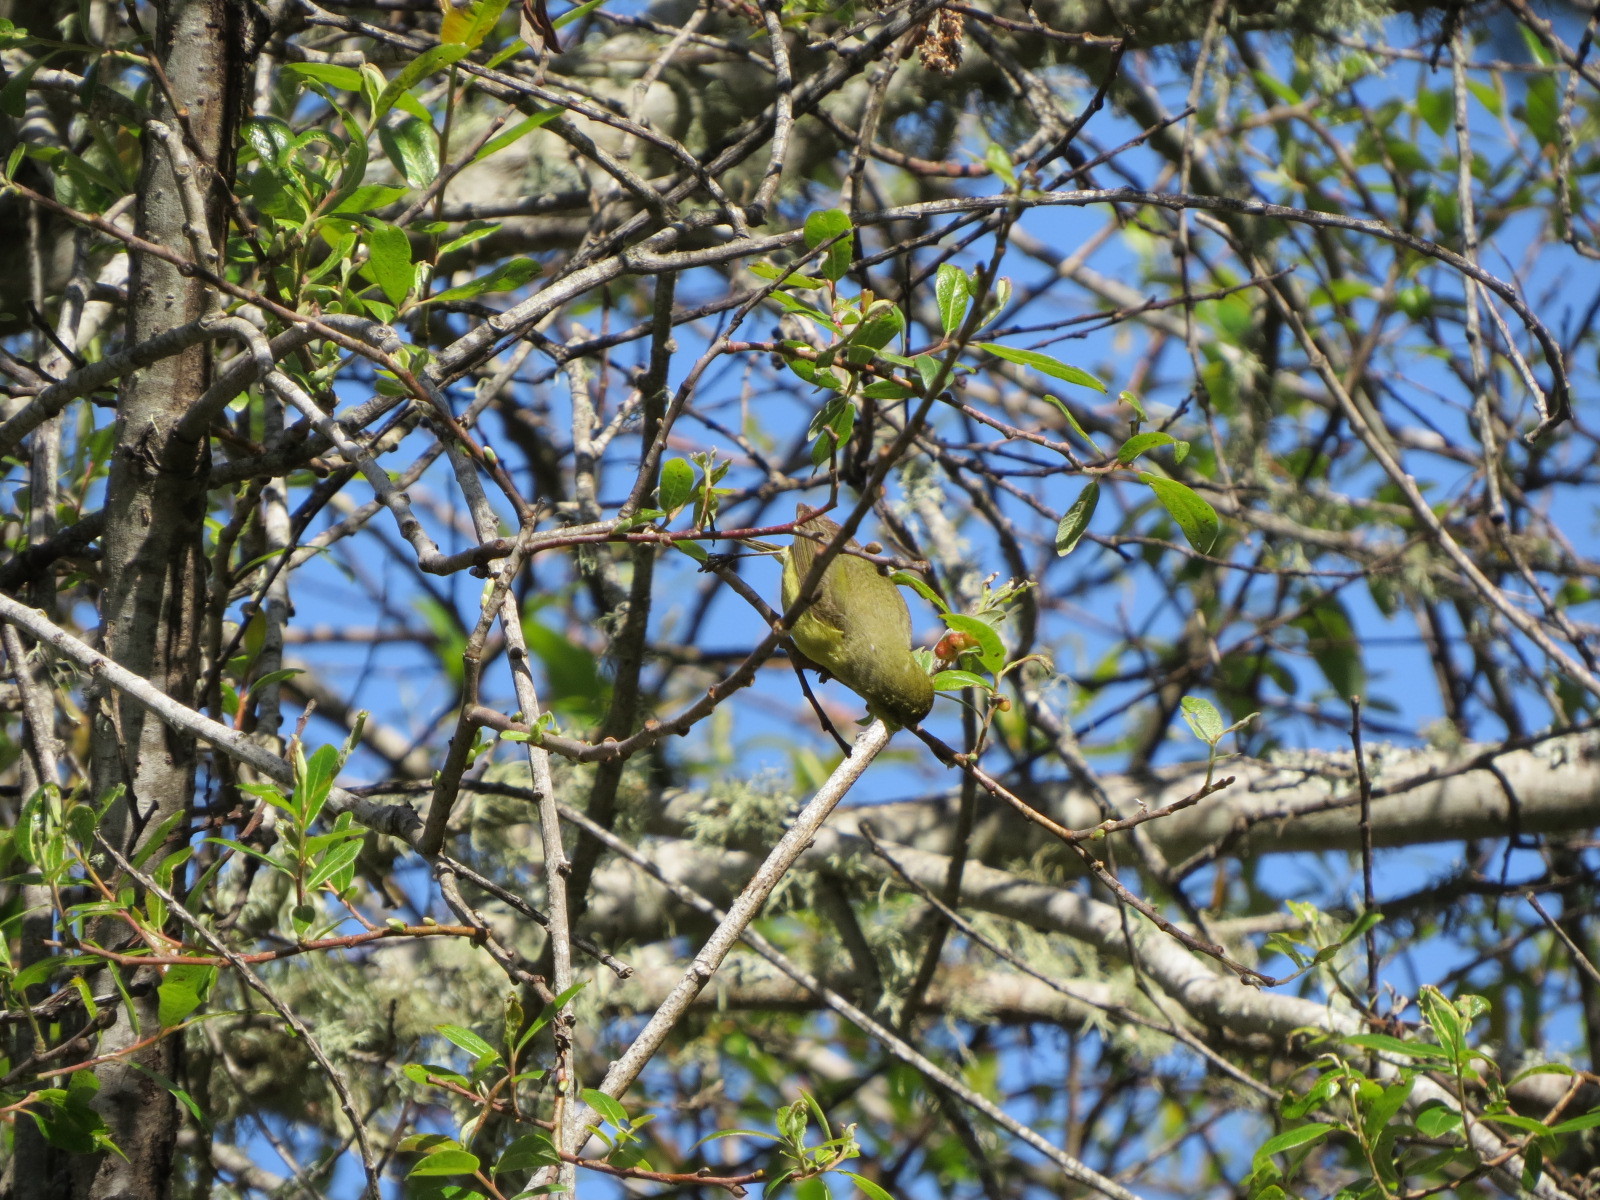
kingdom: Animalia
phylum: Chordata
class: Aves
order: Passeriformes
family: Parulidae
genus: Leiothlypis
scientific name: Leiothlypis celata
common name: Orange-crowned warbler
